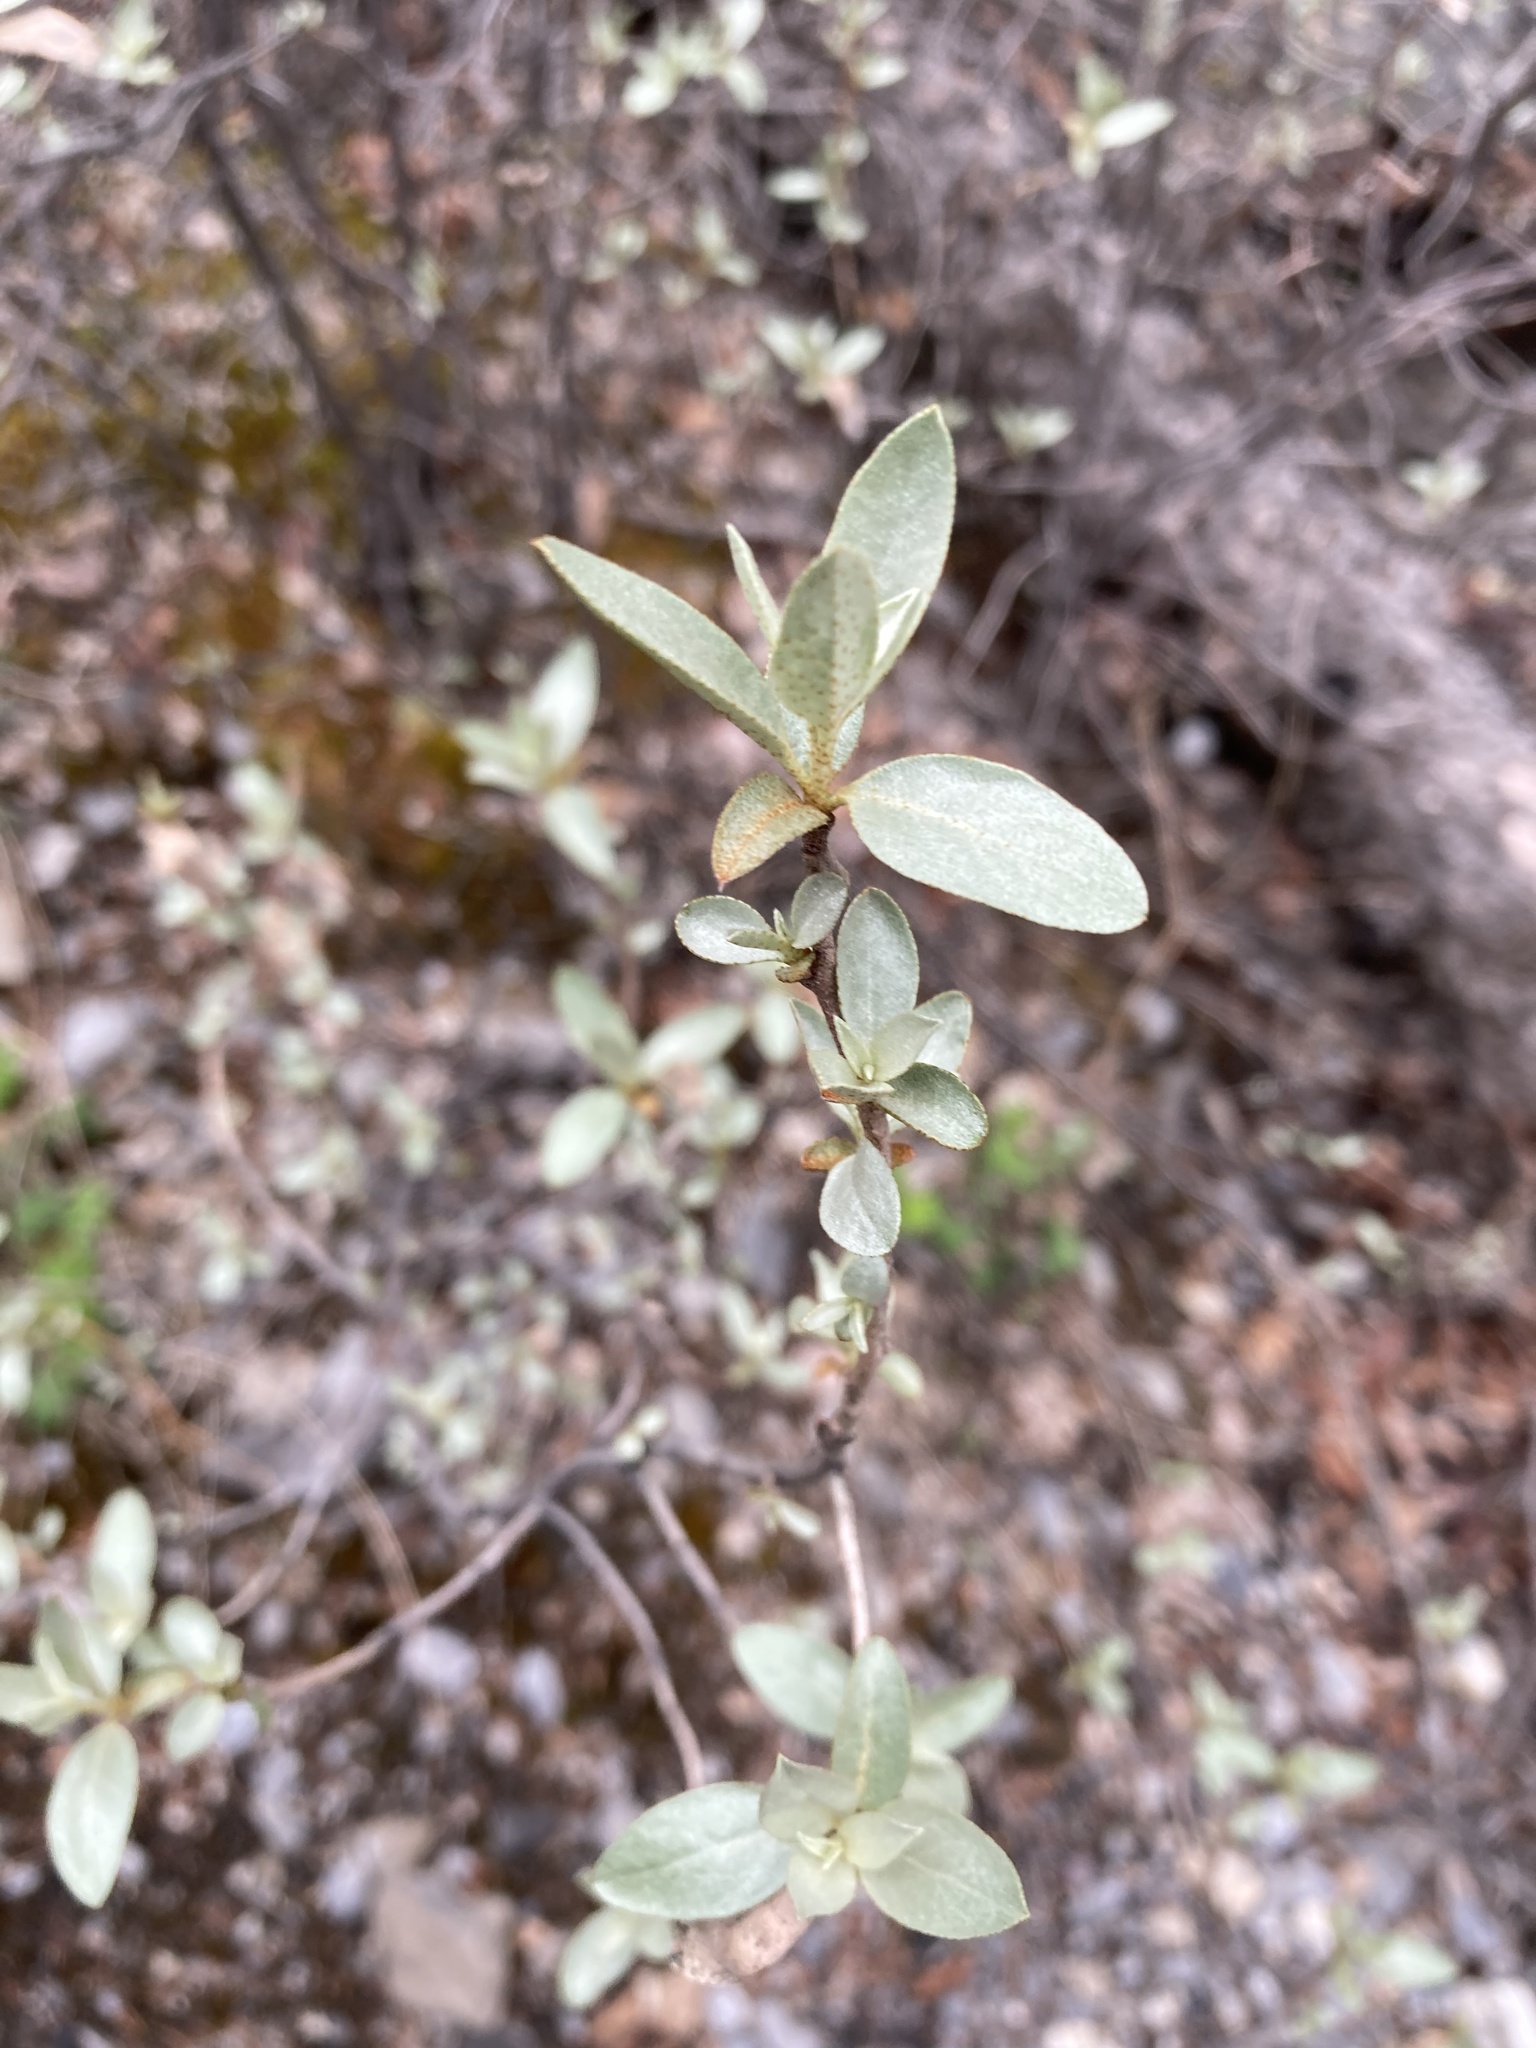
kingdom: Plantae
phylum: Tracheophyta
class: Magnoliopsida
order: Rosales
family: Elaeagnaceae
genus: Elaeagnus
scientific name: Elaeagnus commutata
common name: Silverberry
